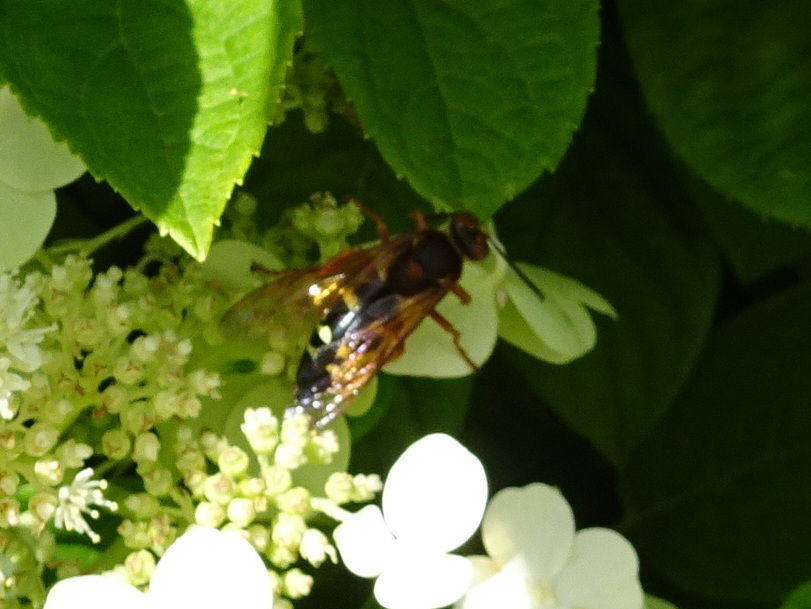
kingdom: Animalia
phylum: Arthropoda
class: Insecta
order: Hymenoptera
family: Crabronidae
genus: Sphecius
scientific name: Sphecius speciosus
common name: Cicada killer
